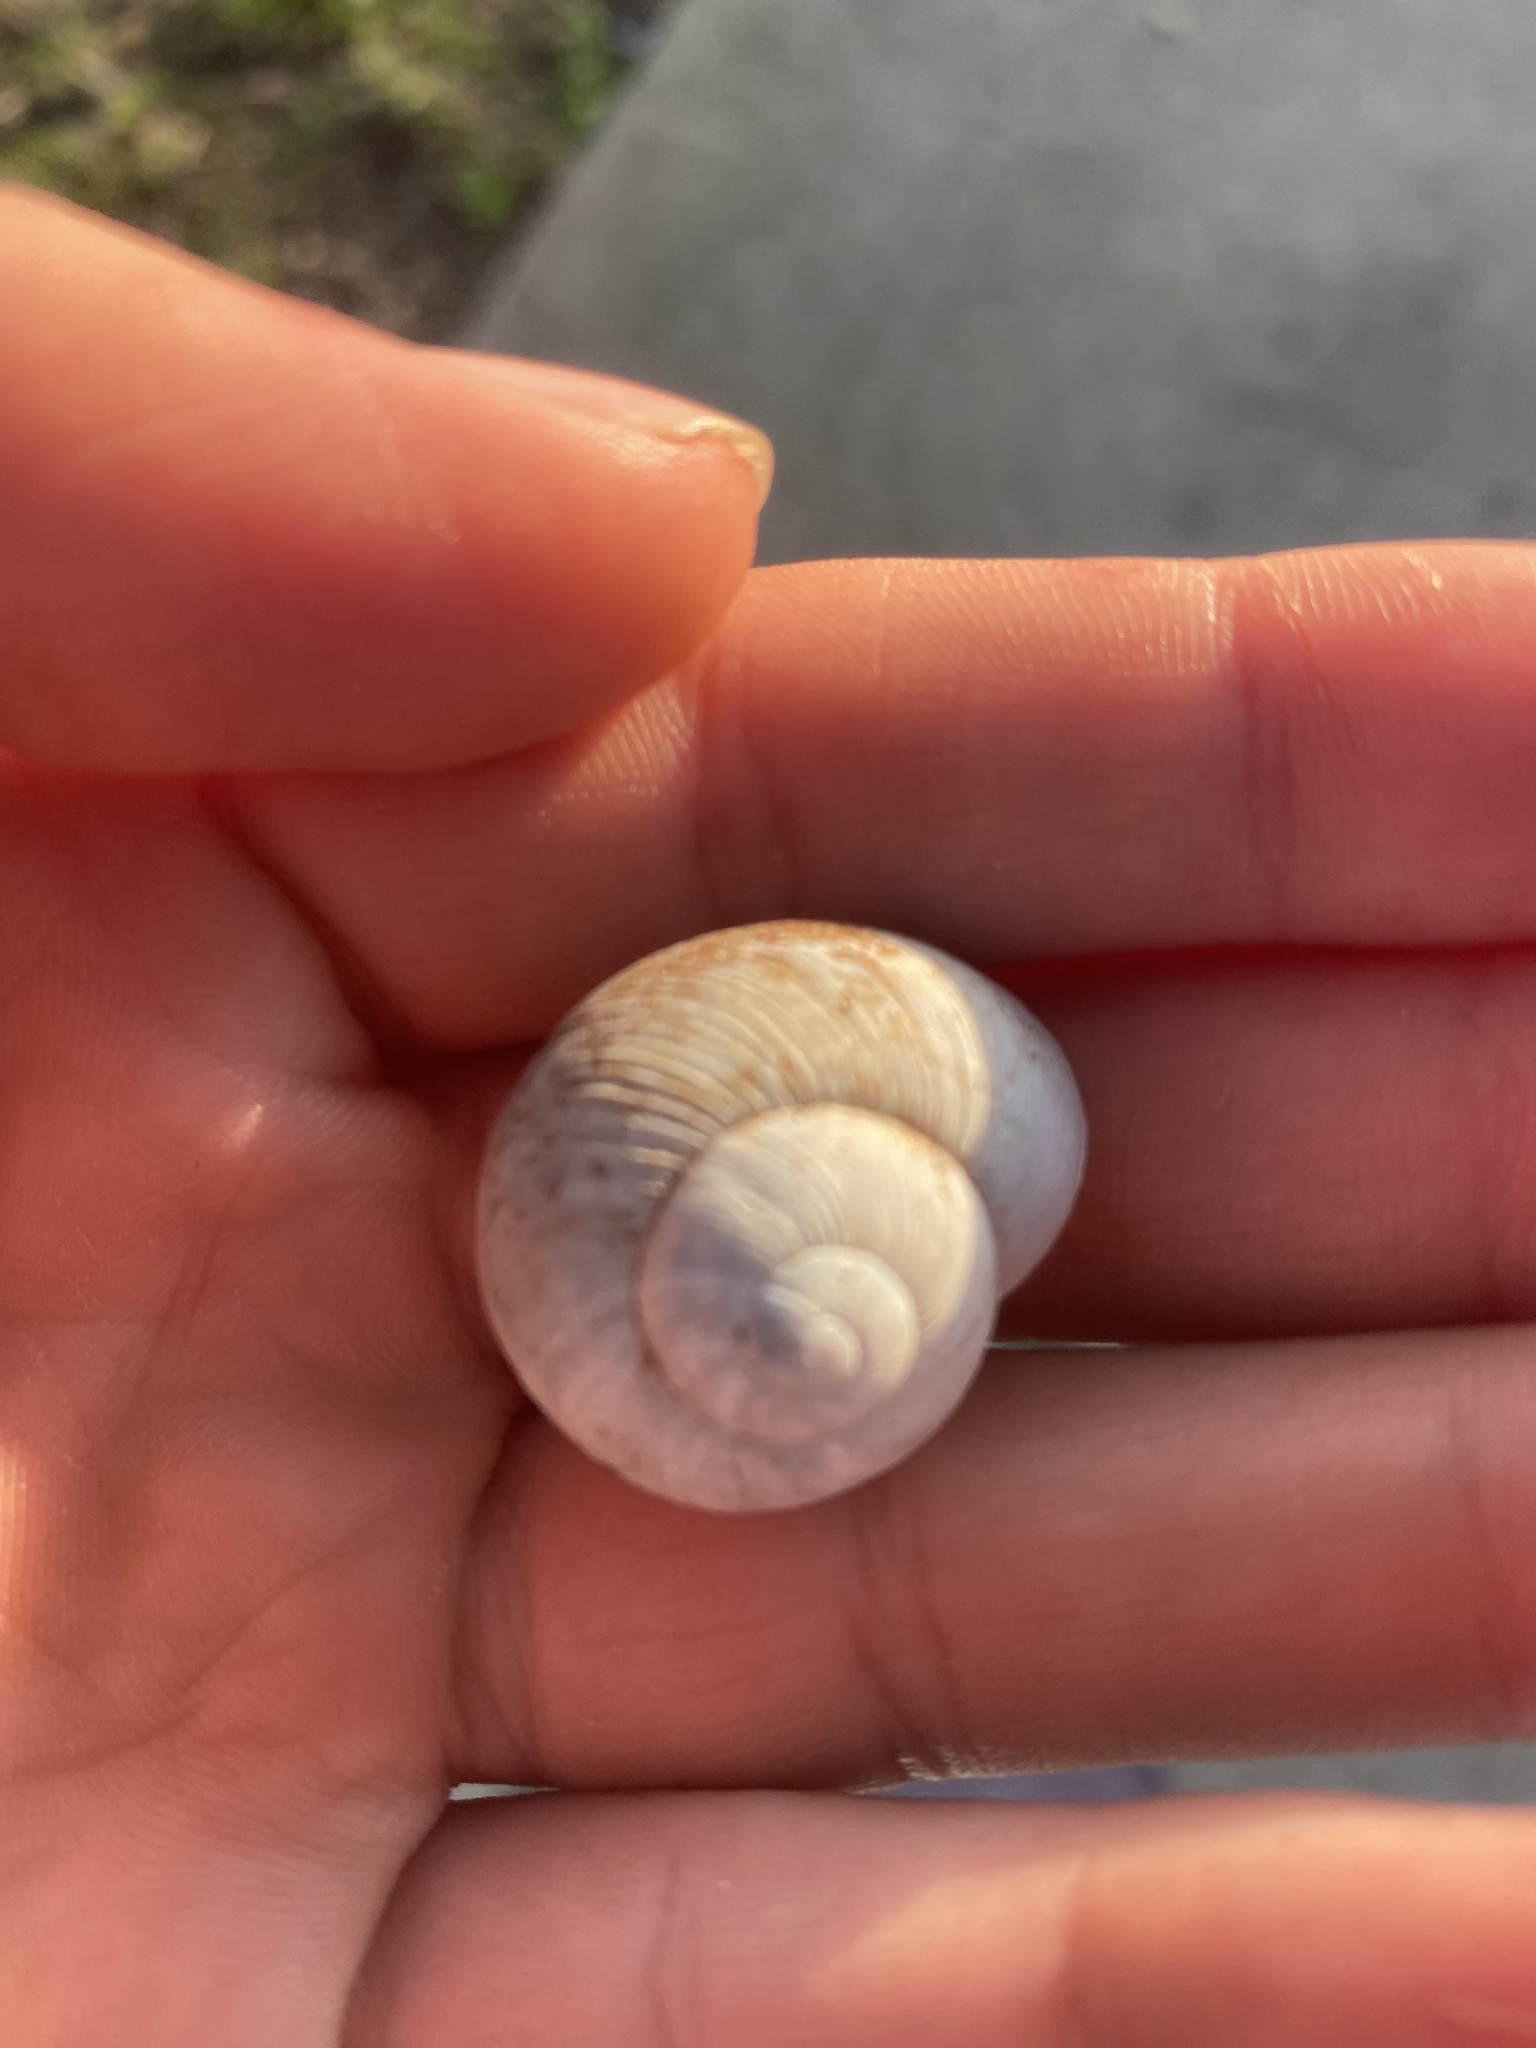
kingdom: Animalia
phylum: Mollusca
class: Gastropoda
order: Stylommatophora
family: Zachrysiidae
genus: Zachrysia
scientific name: Zachrysia provisoria
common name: Garden zachrysia
